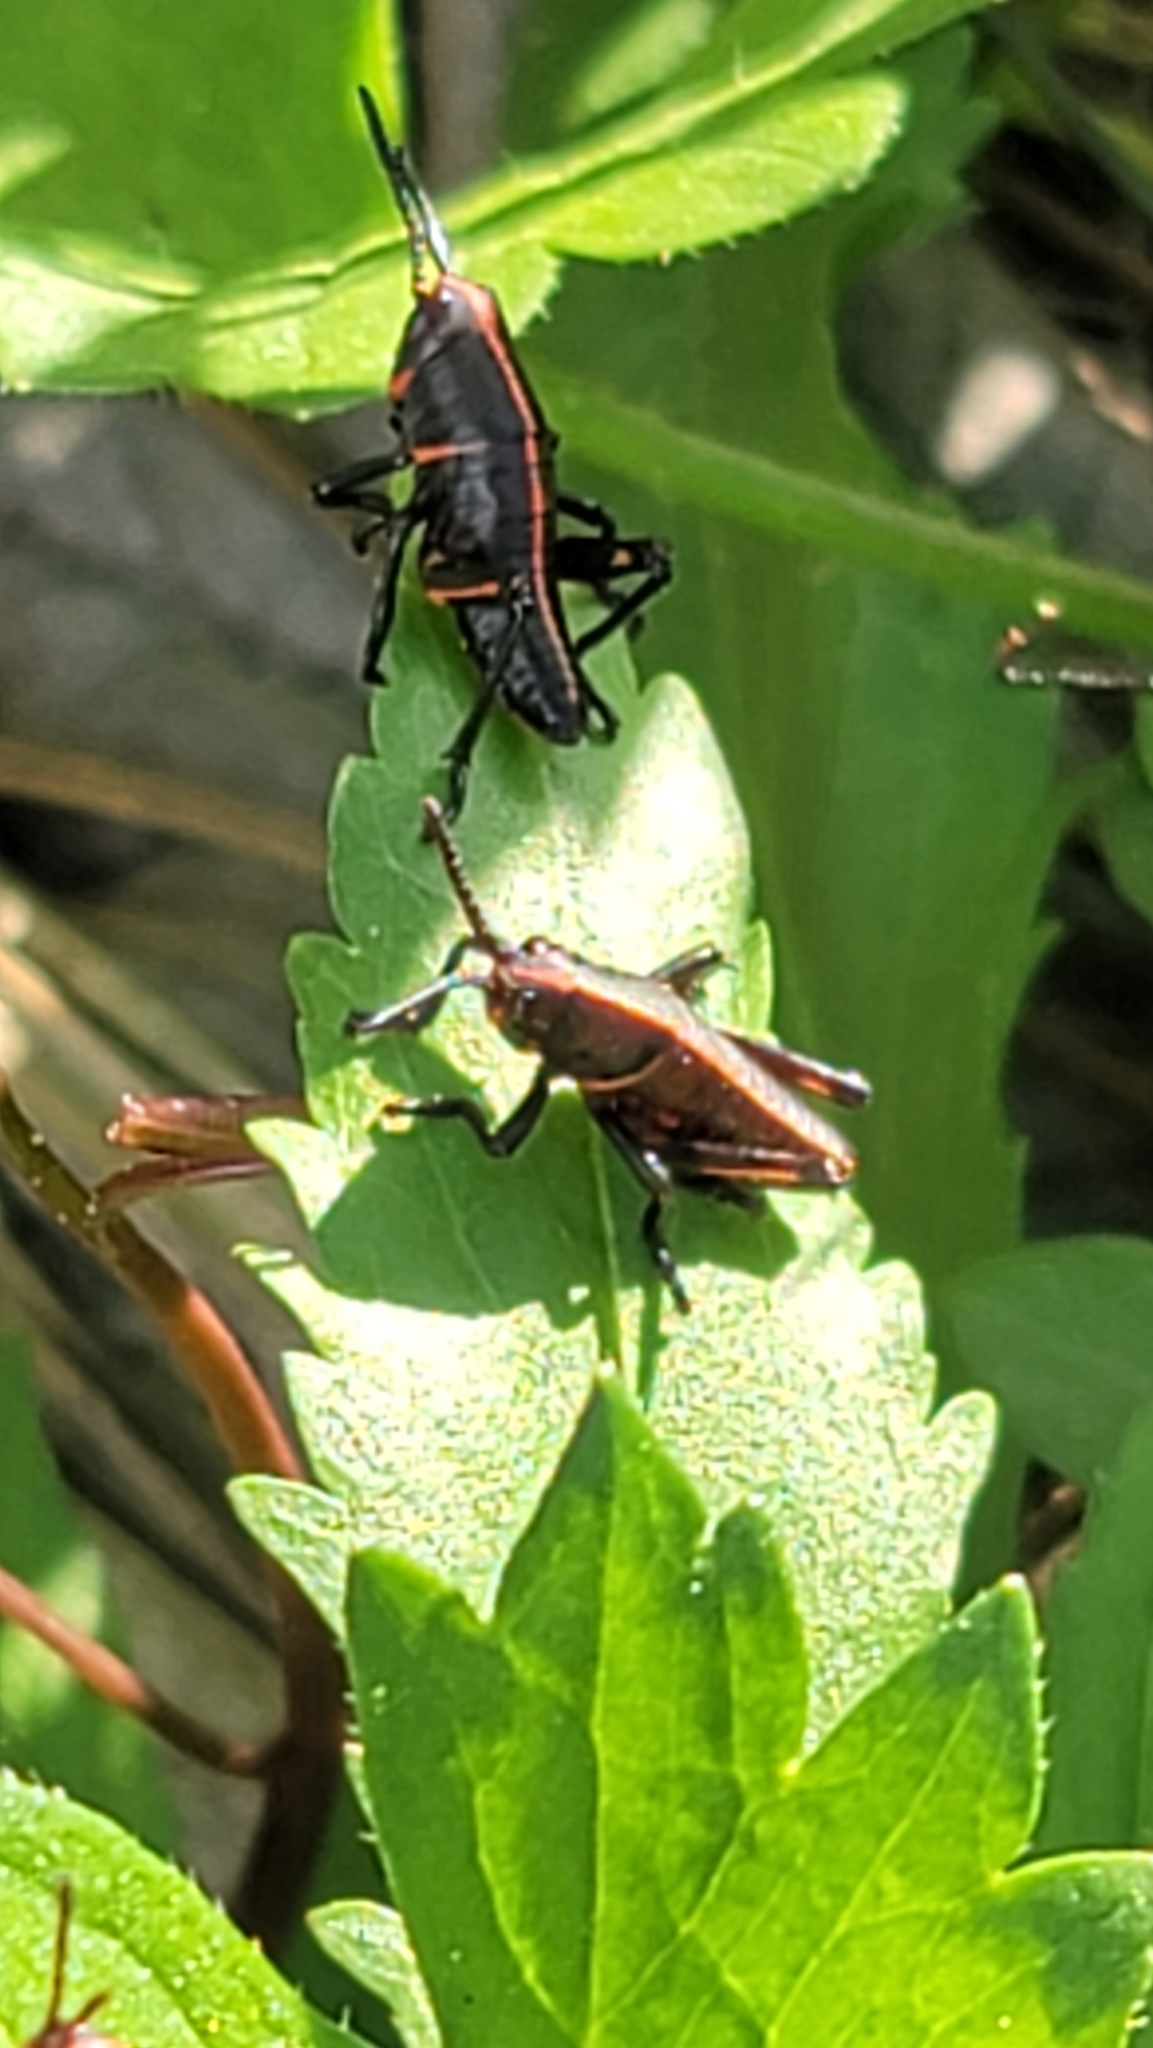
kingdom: Animalia
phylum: Arthropoda
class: Insecta
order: Orthoptera
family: Romaleidae
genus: Romalea
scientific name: Romalea microptera
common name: Eastern lubber grasshopper
